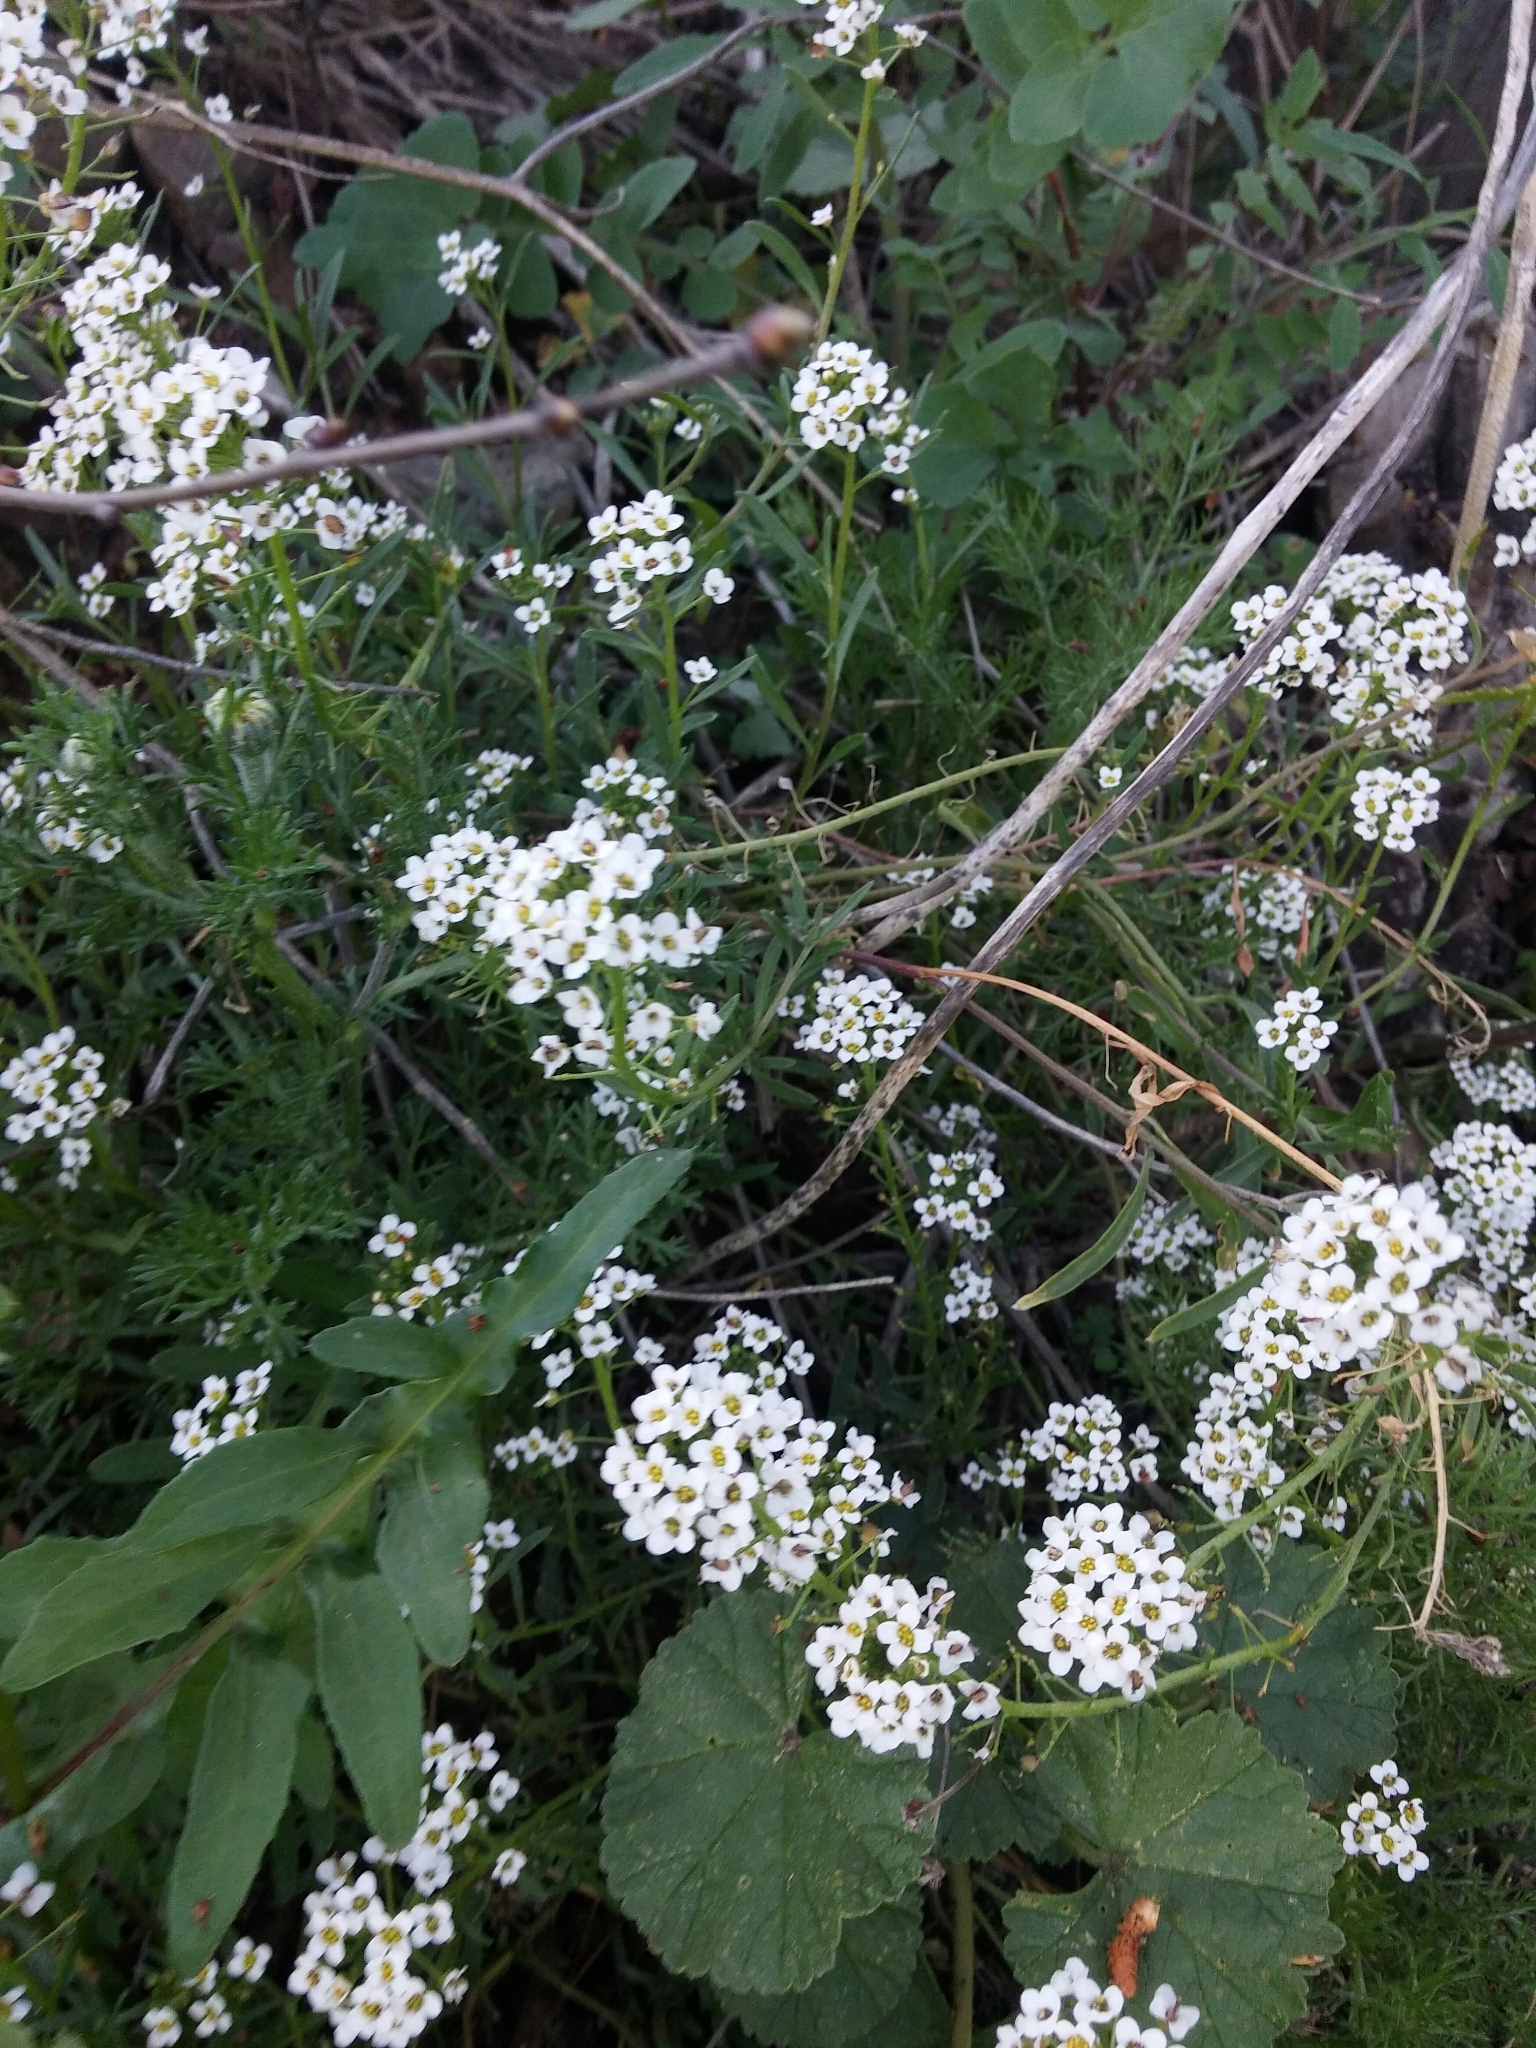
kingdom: Plantae
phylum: Tracheophyta
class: Magnoliopsida
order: Brassicales
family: Brassicaceae
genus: Lobularia
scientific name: Lobularia maritima
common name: Sweet alison
